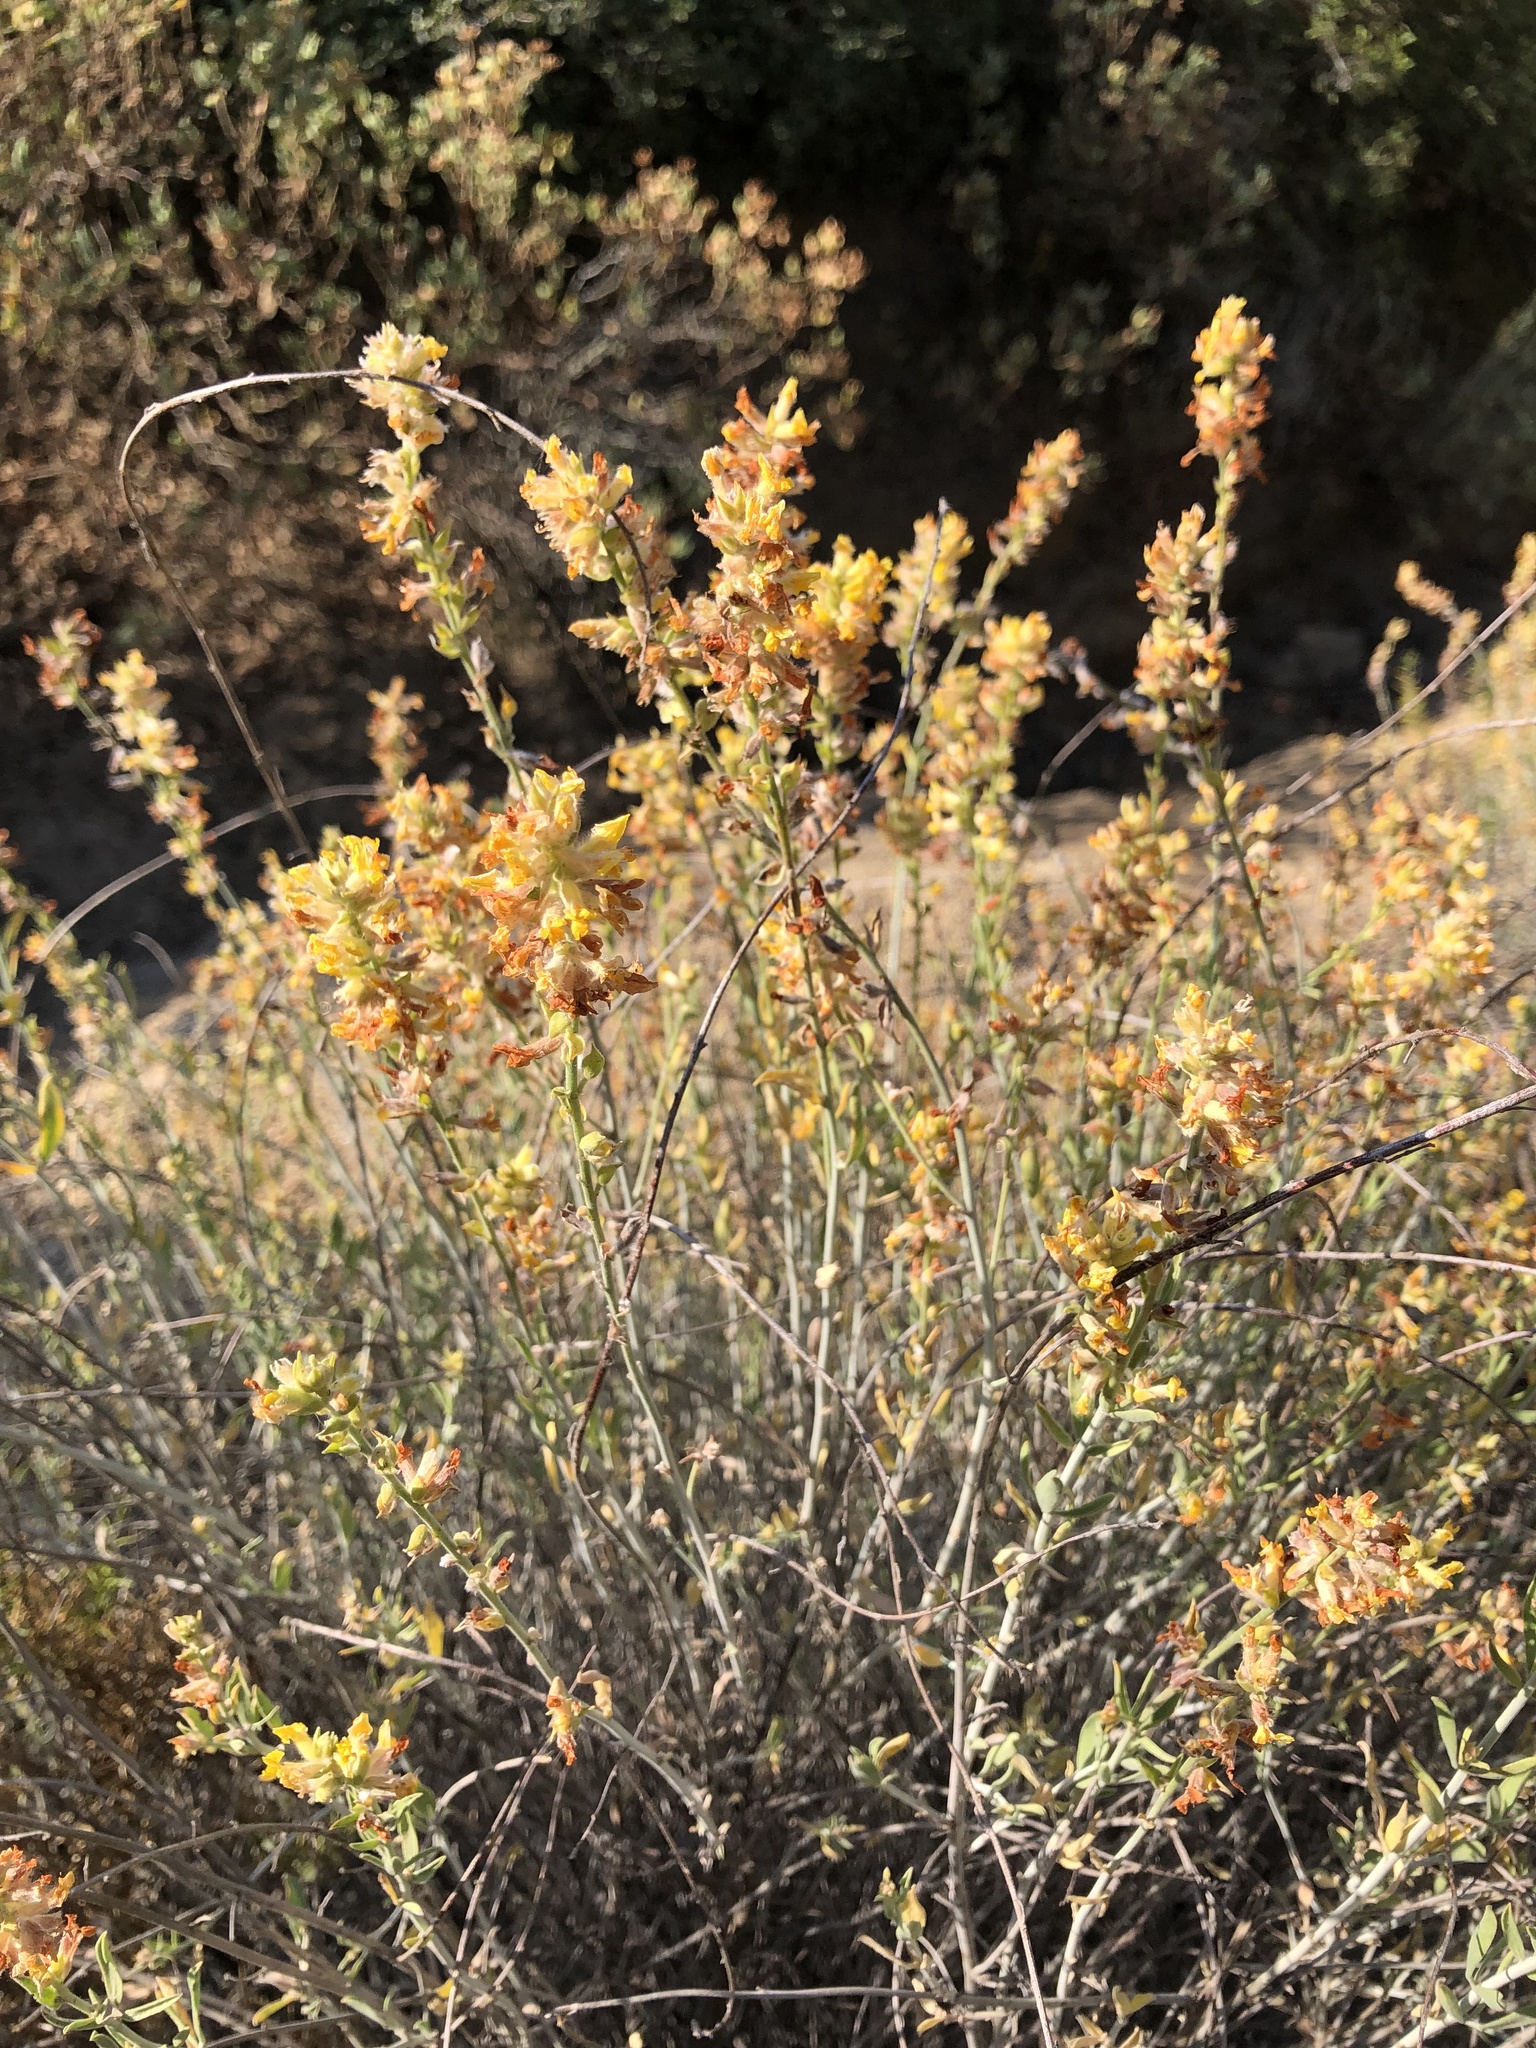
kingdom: Plantae
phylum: Tracheophyta
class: Magnoliopsida
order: Fabales
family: Fabaceae
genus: Anthyllis
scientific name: Anthyllis cytisoides
